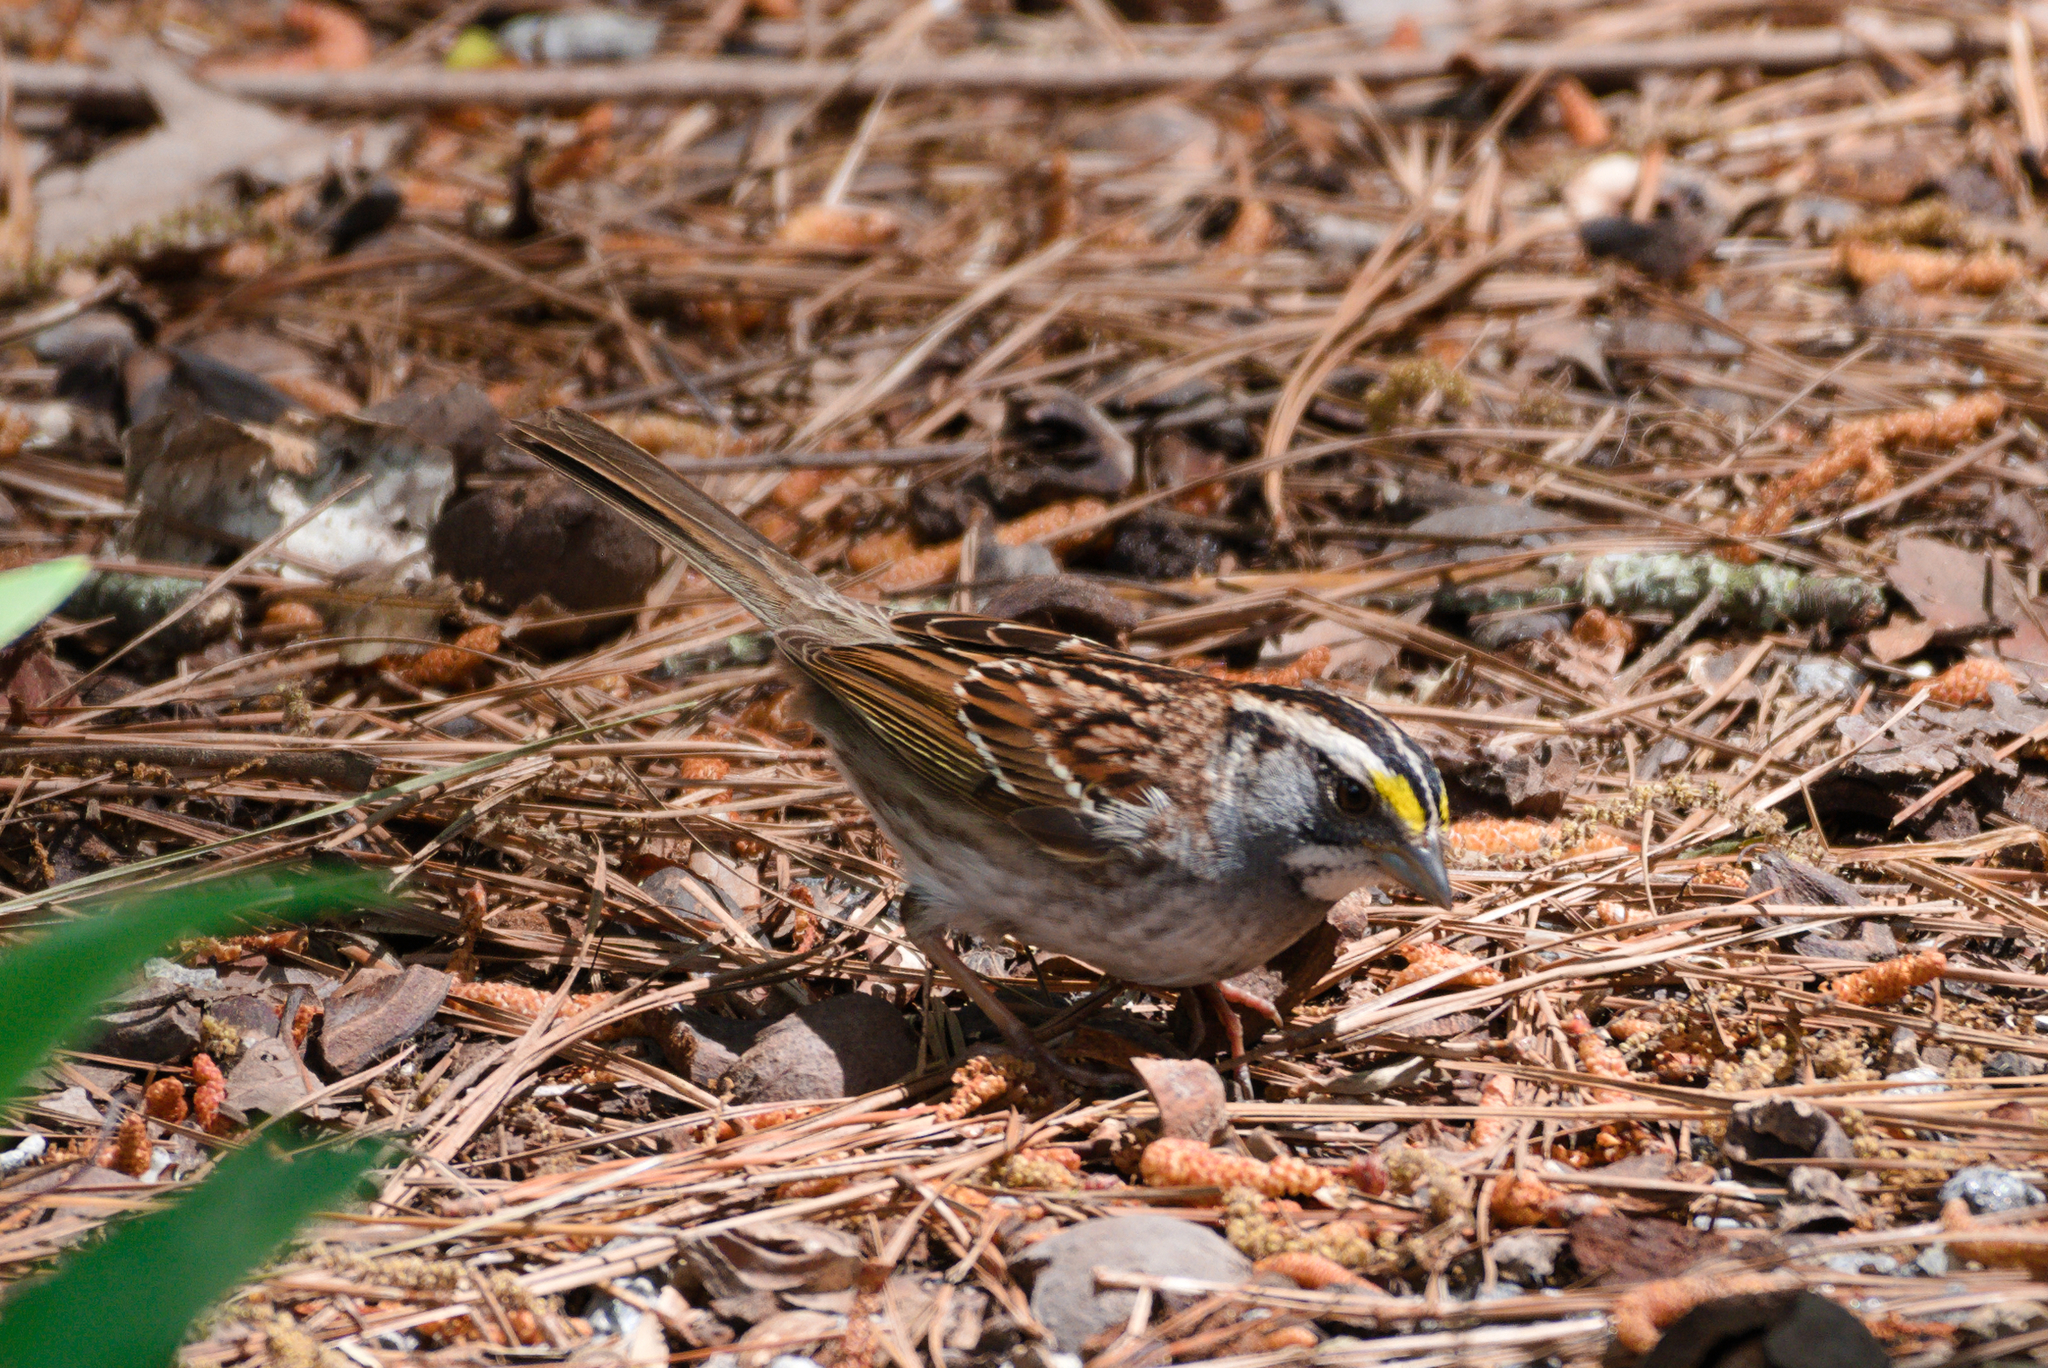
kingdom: Animalia
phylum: Chordata
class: Aves
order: Passeriformes
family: Passerellidae
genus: Zonotrichia
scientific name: Zonotrichia albicollis
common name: White-throated sparrow
